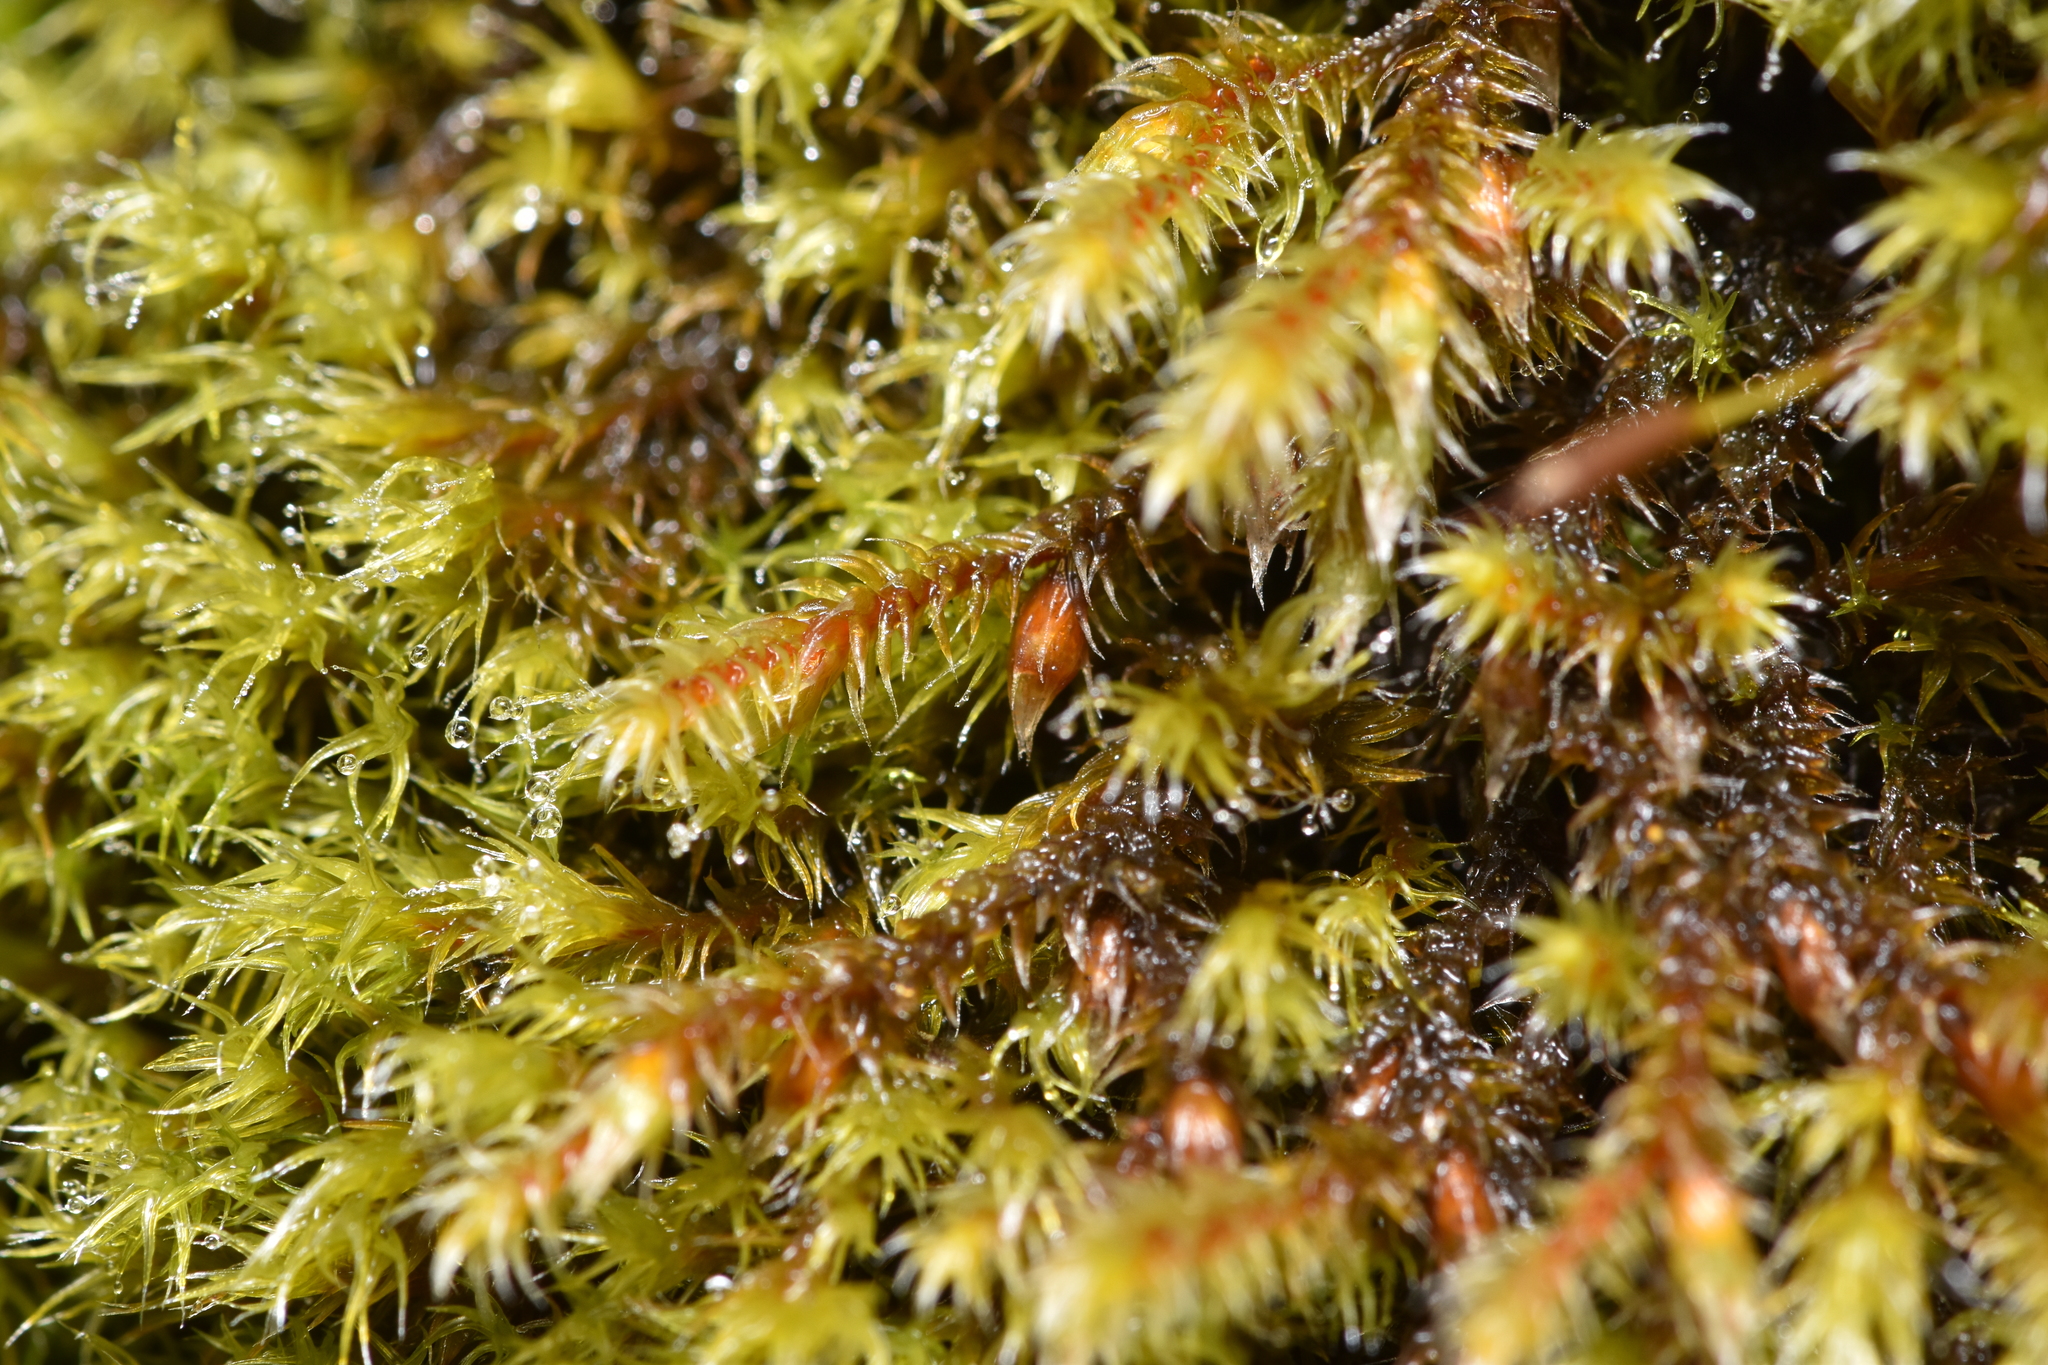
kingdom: Plantae
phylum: Bryophyta
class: Bryopsida
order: Hedwigiales
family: Hedwigiaceae
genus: Pseudobraunia
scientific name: Pseudobraunia californica
